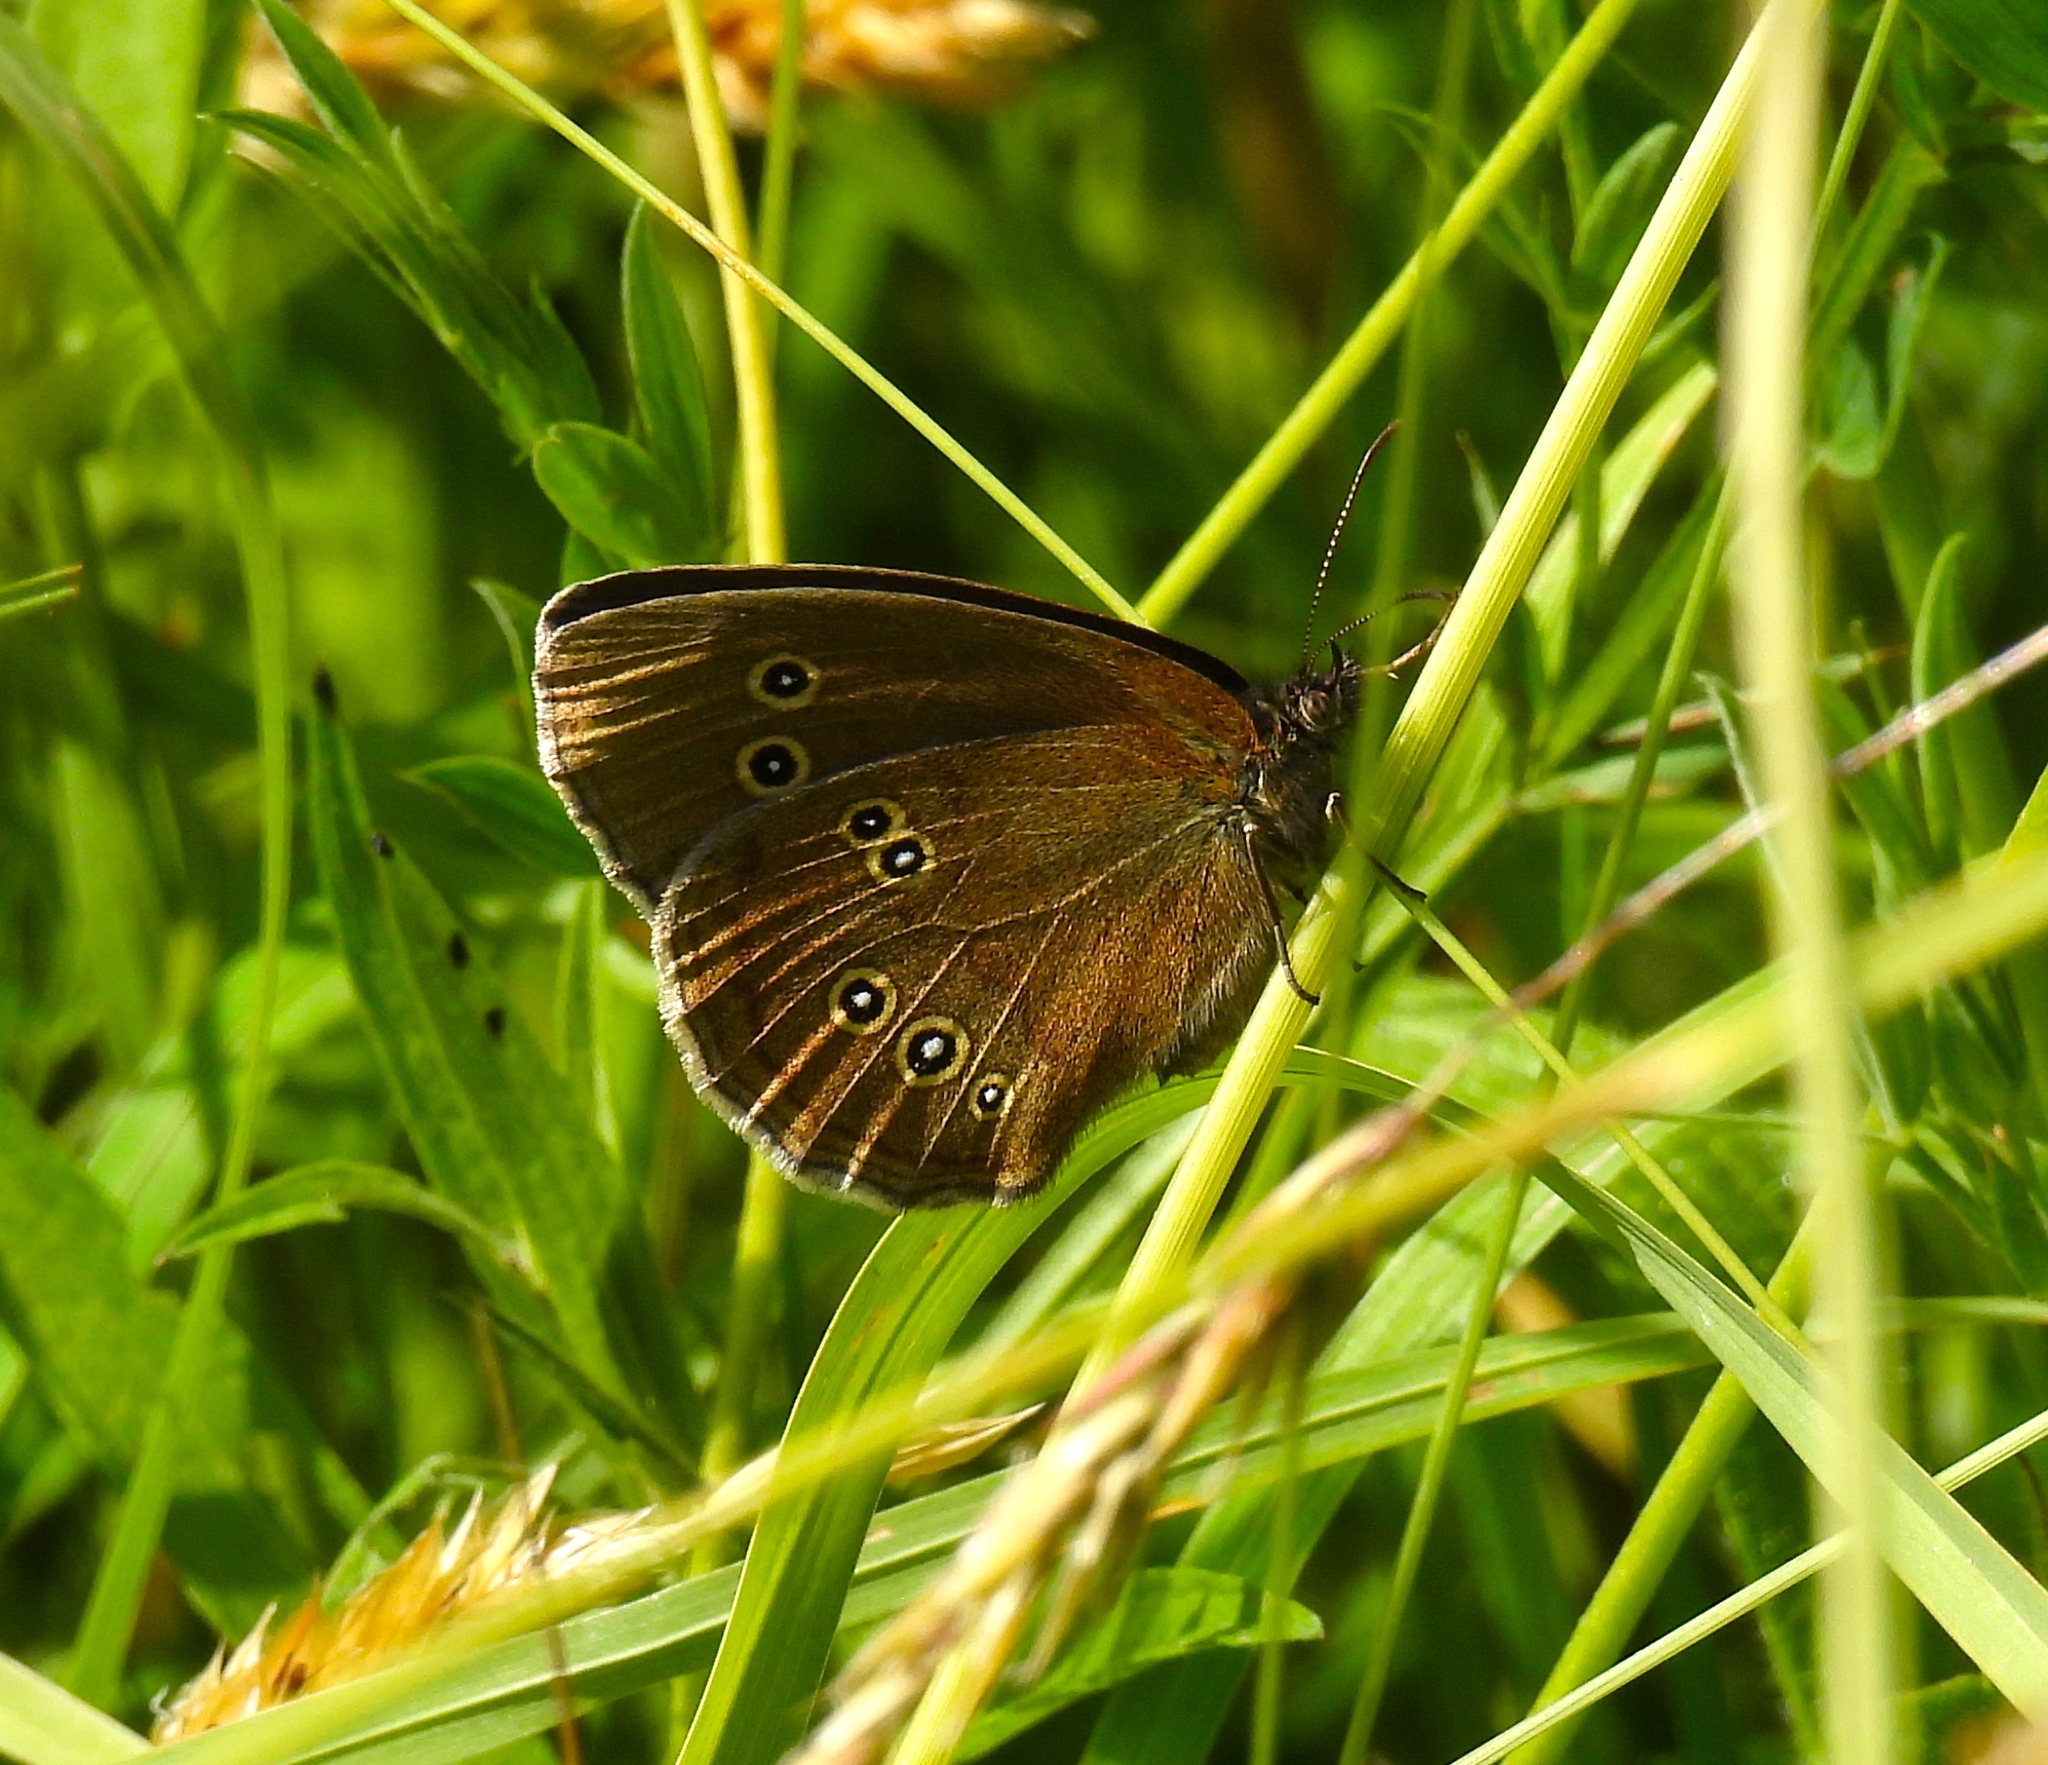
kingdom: Animalia
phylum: Arthropoda
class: Insecta
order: Lepidoptera
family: Nymphalidae
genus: Aphantopus
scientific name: Aphantopus hyperantus
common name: Ringlet
